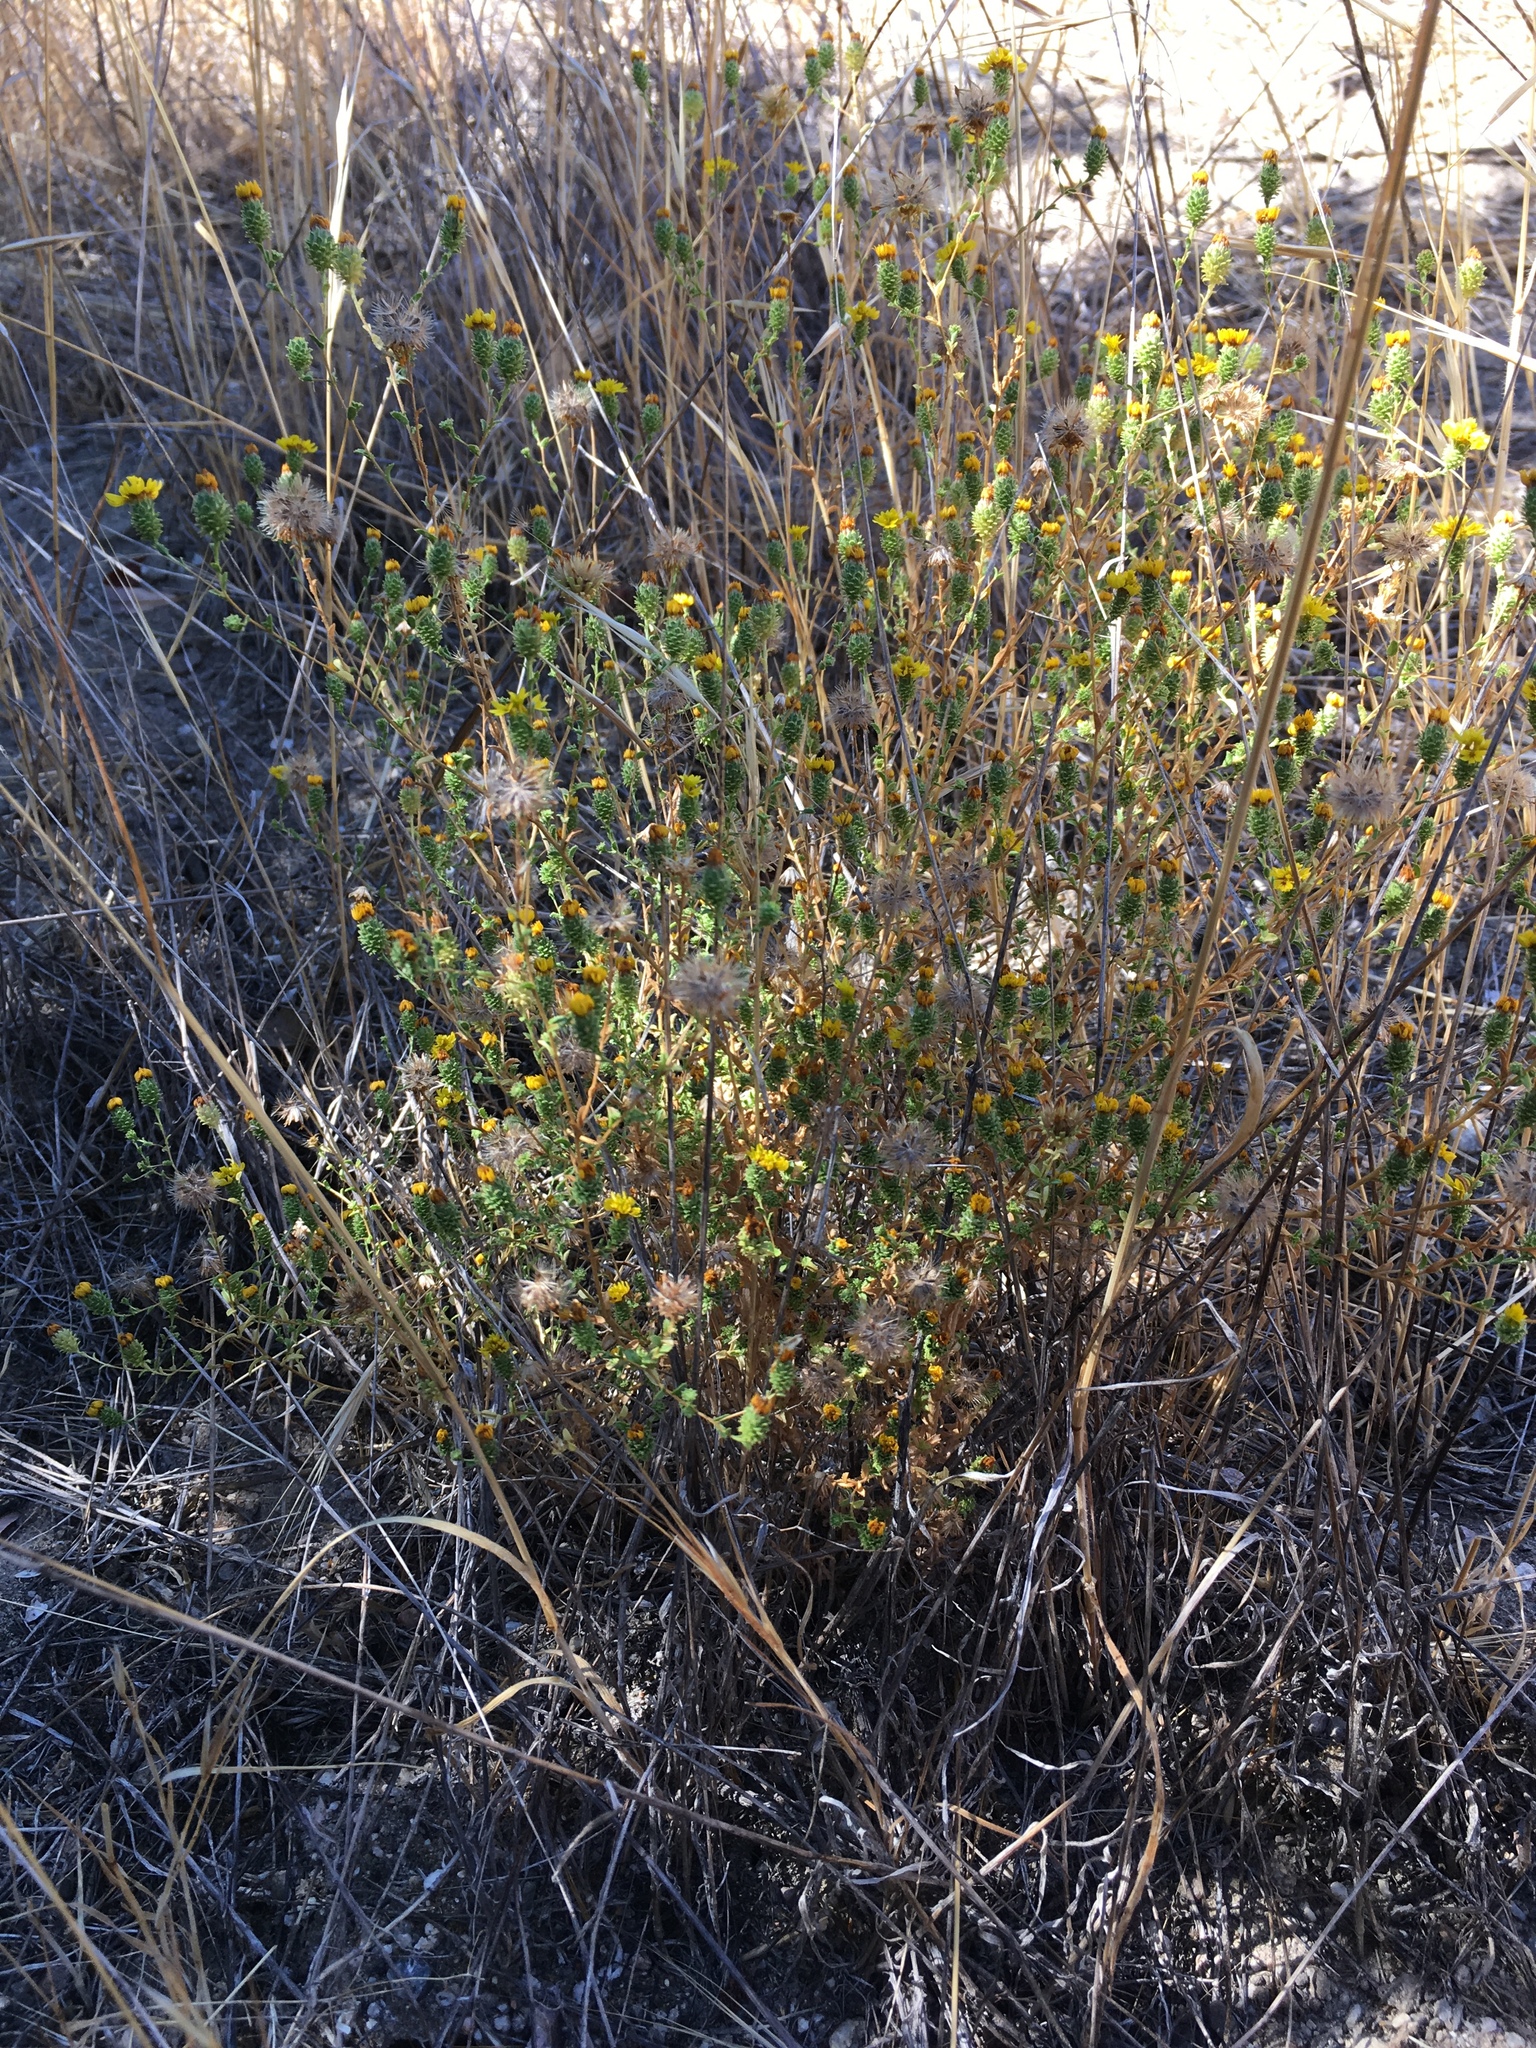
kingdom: Plantae
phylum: Tracheophyta
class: Magnoliopsida
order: Asterales
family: Asteraceae
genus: Lessingia
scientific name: Lessingia pectinata
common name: Valley lessingia
